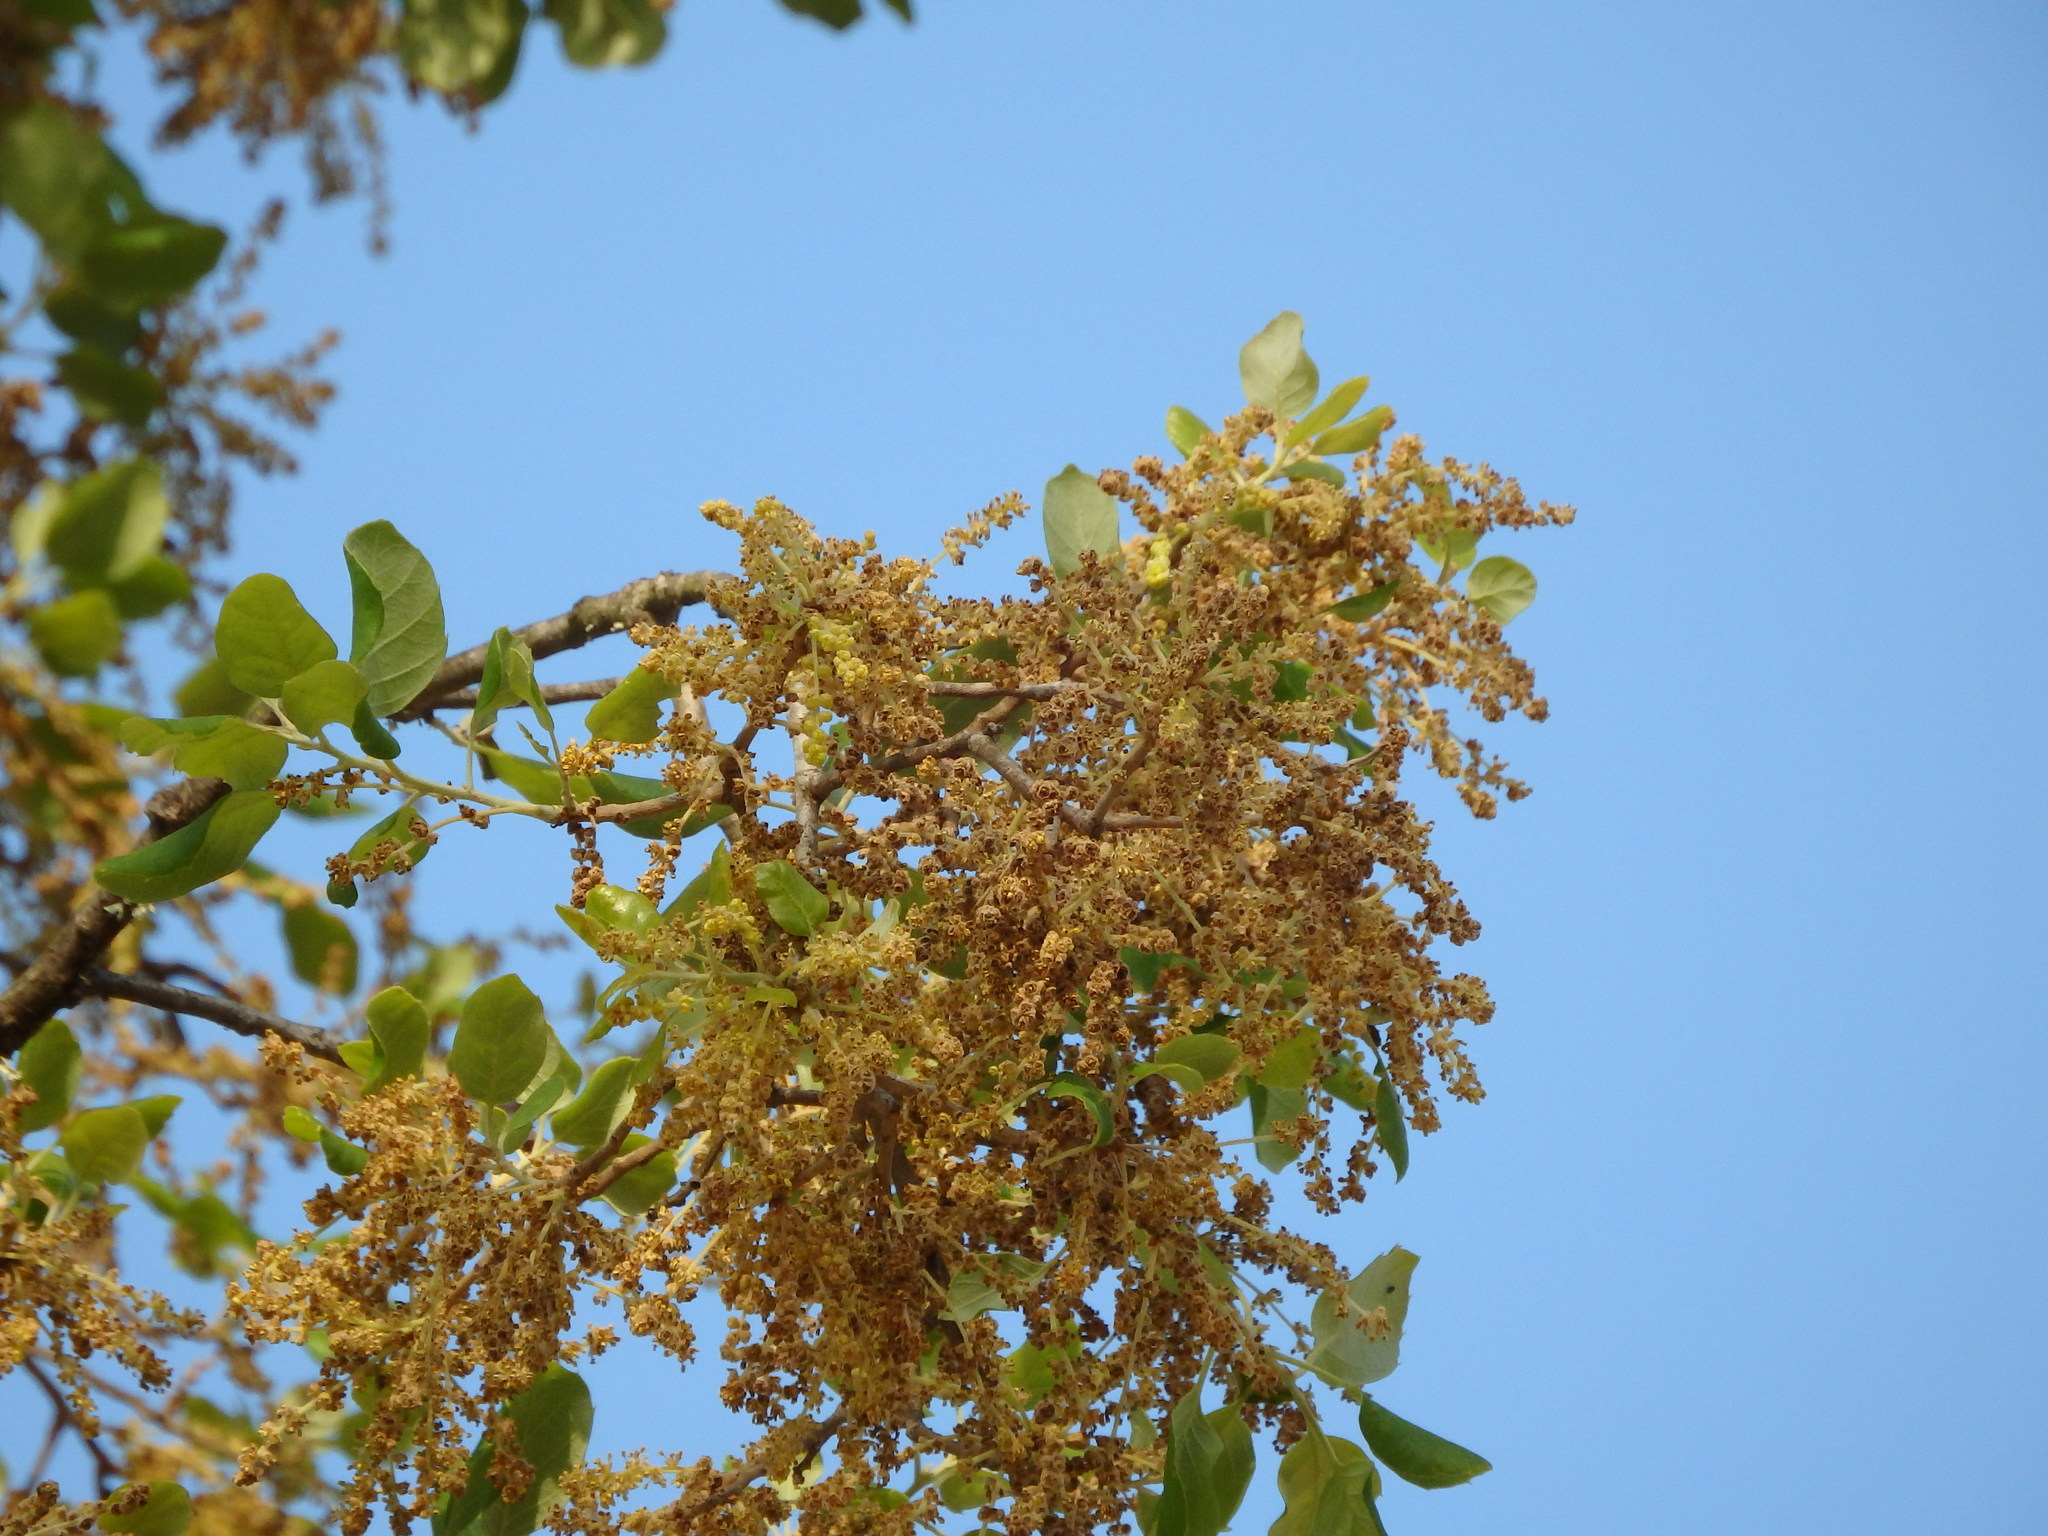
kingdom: Plantae
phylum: Tracheophyta
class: Magnoliopsida
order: Fagales
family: Fagaceae
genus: Quercus
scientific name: Quercus suber
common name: Cork oak
